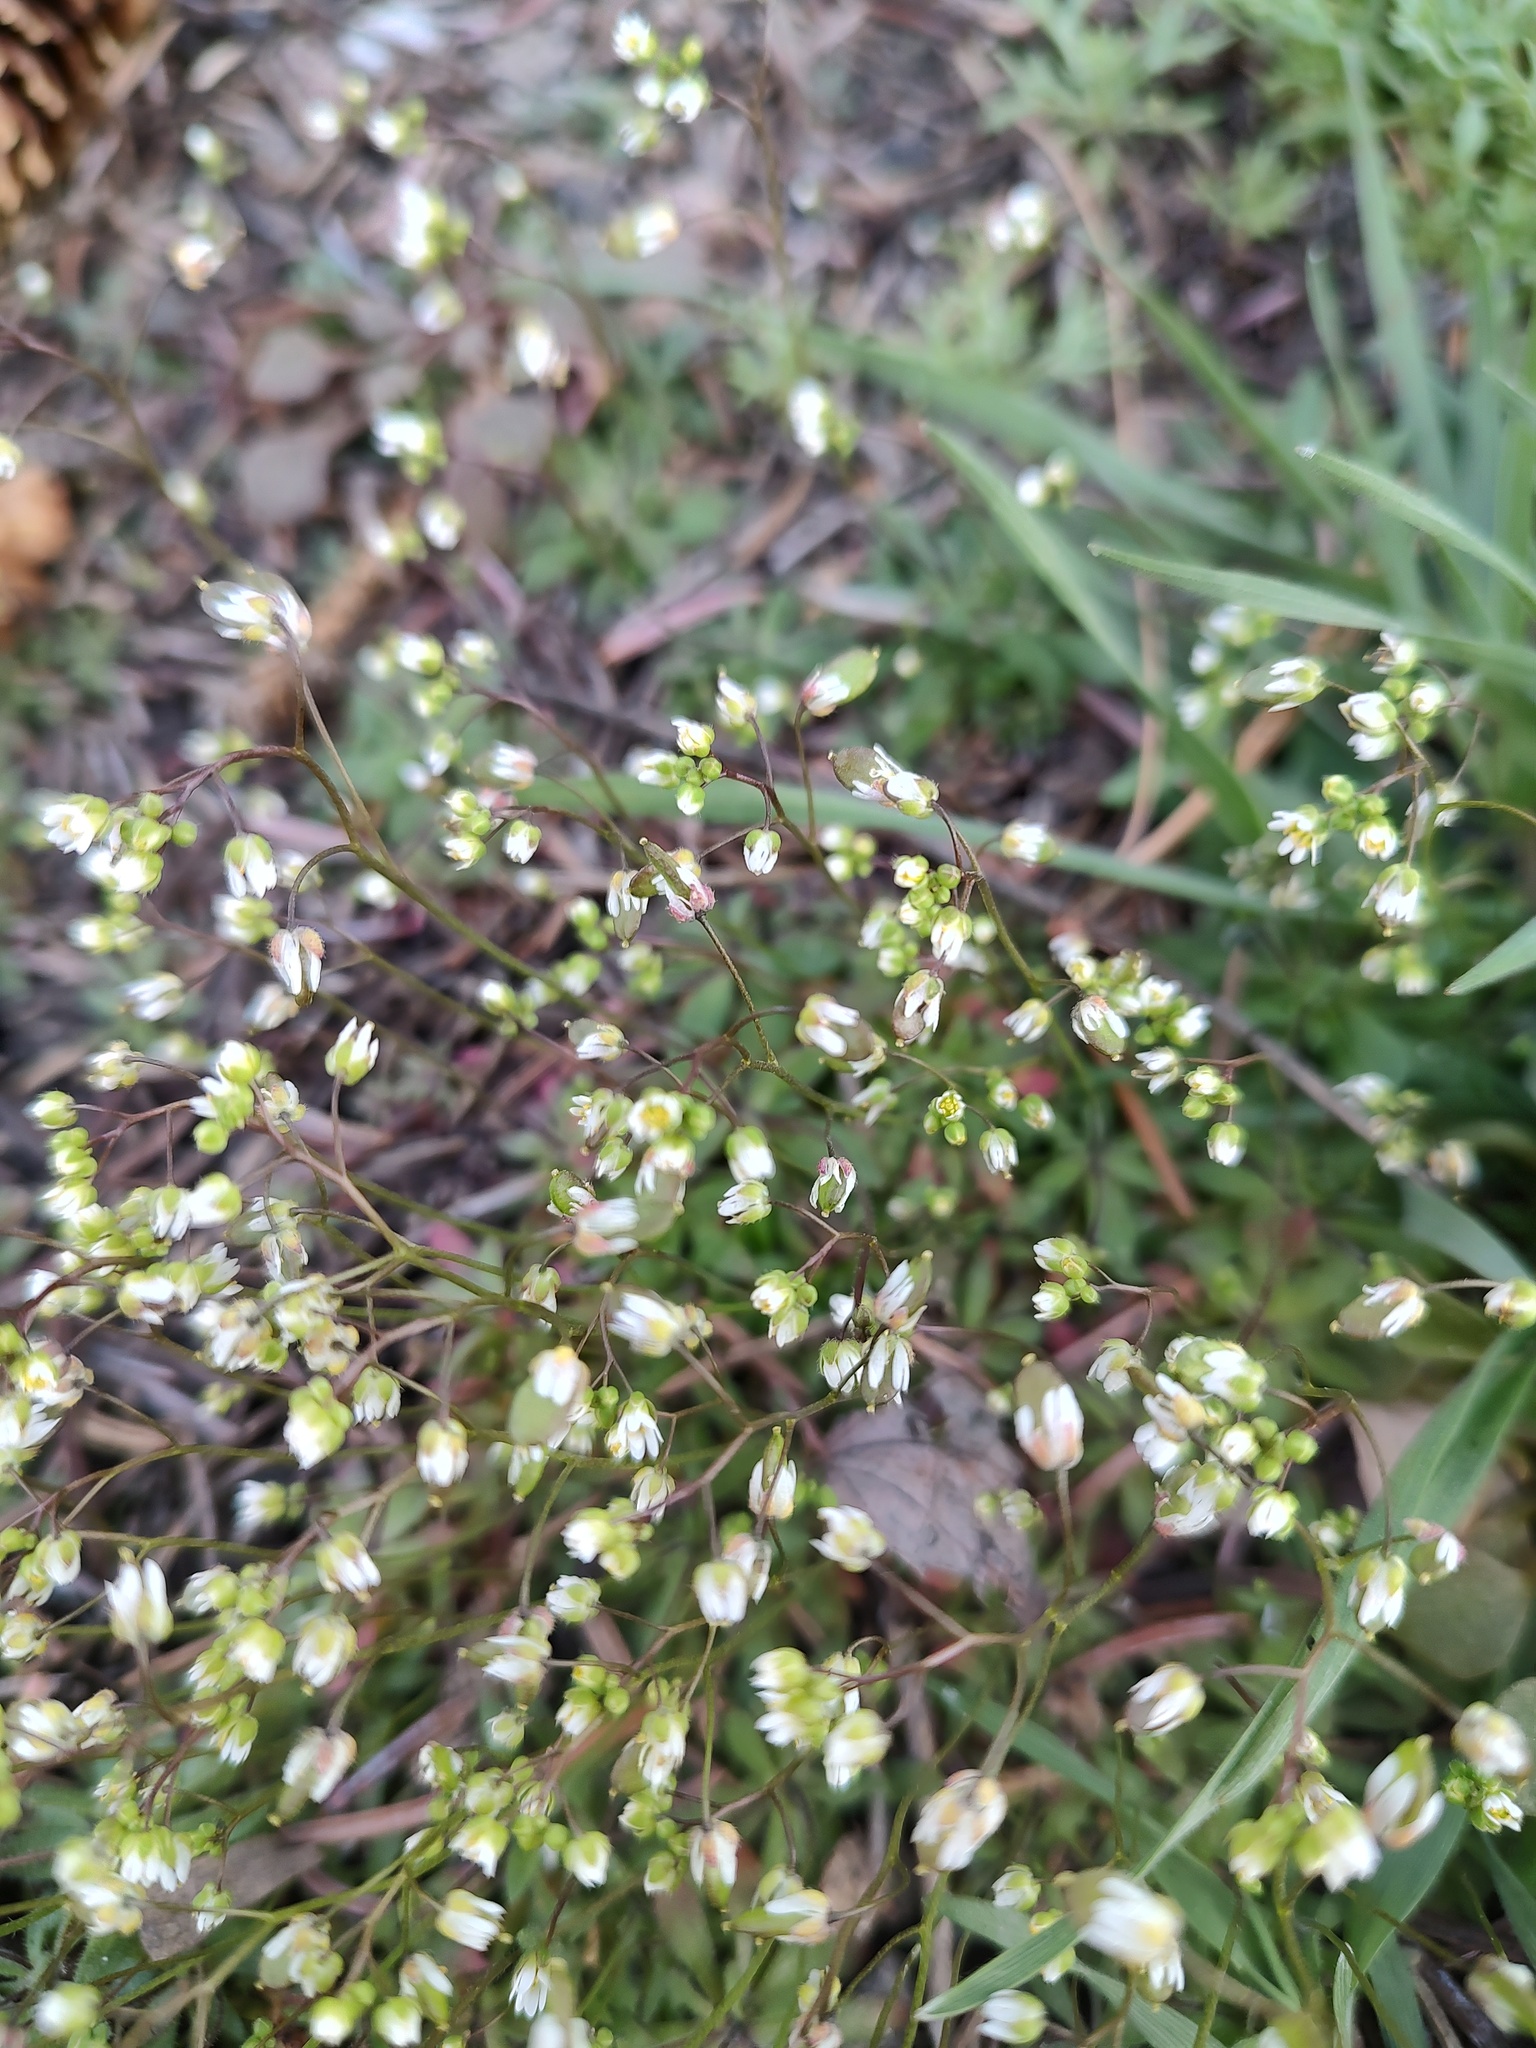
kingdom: Plantae
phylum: Tracheophyta
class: Magnoliopsida
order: Brassicales
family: Brassicaceae
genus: Draba
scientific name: Draba verna
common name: Spring draba
